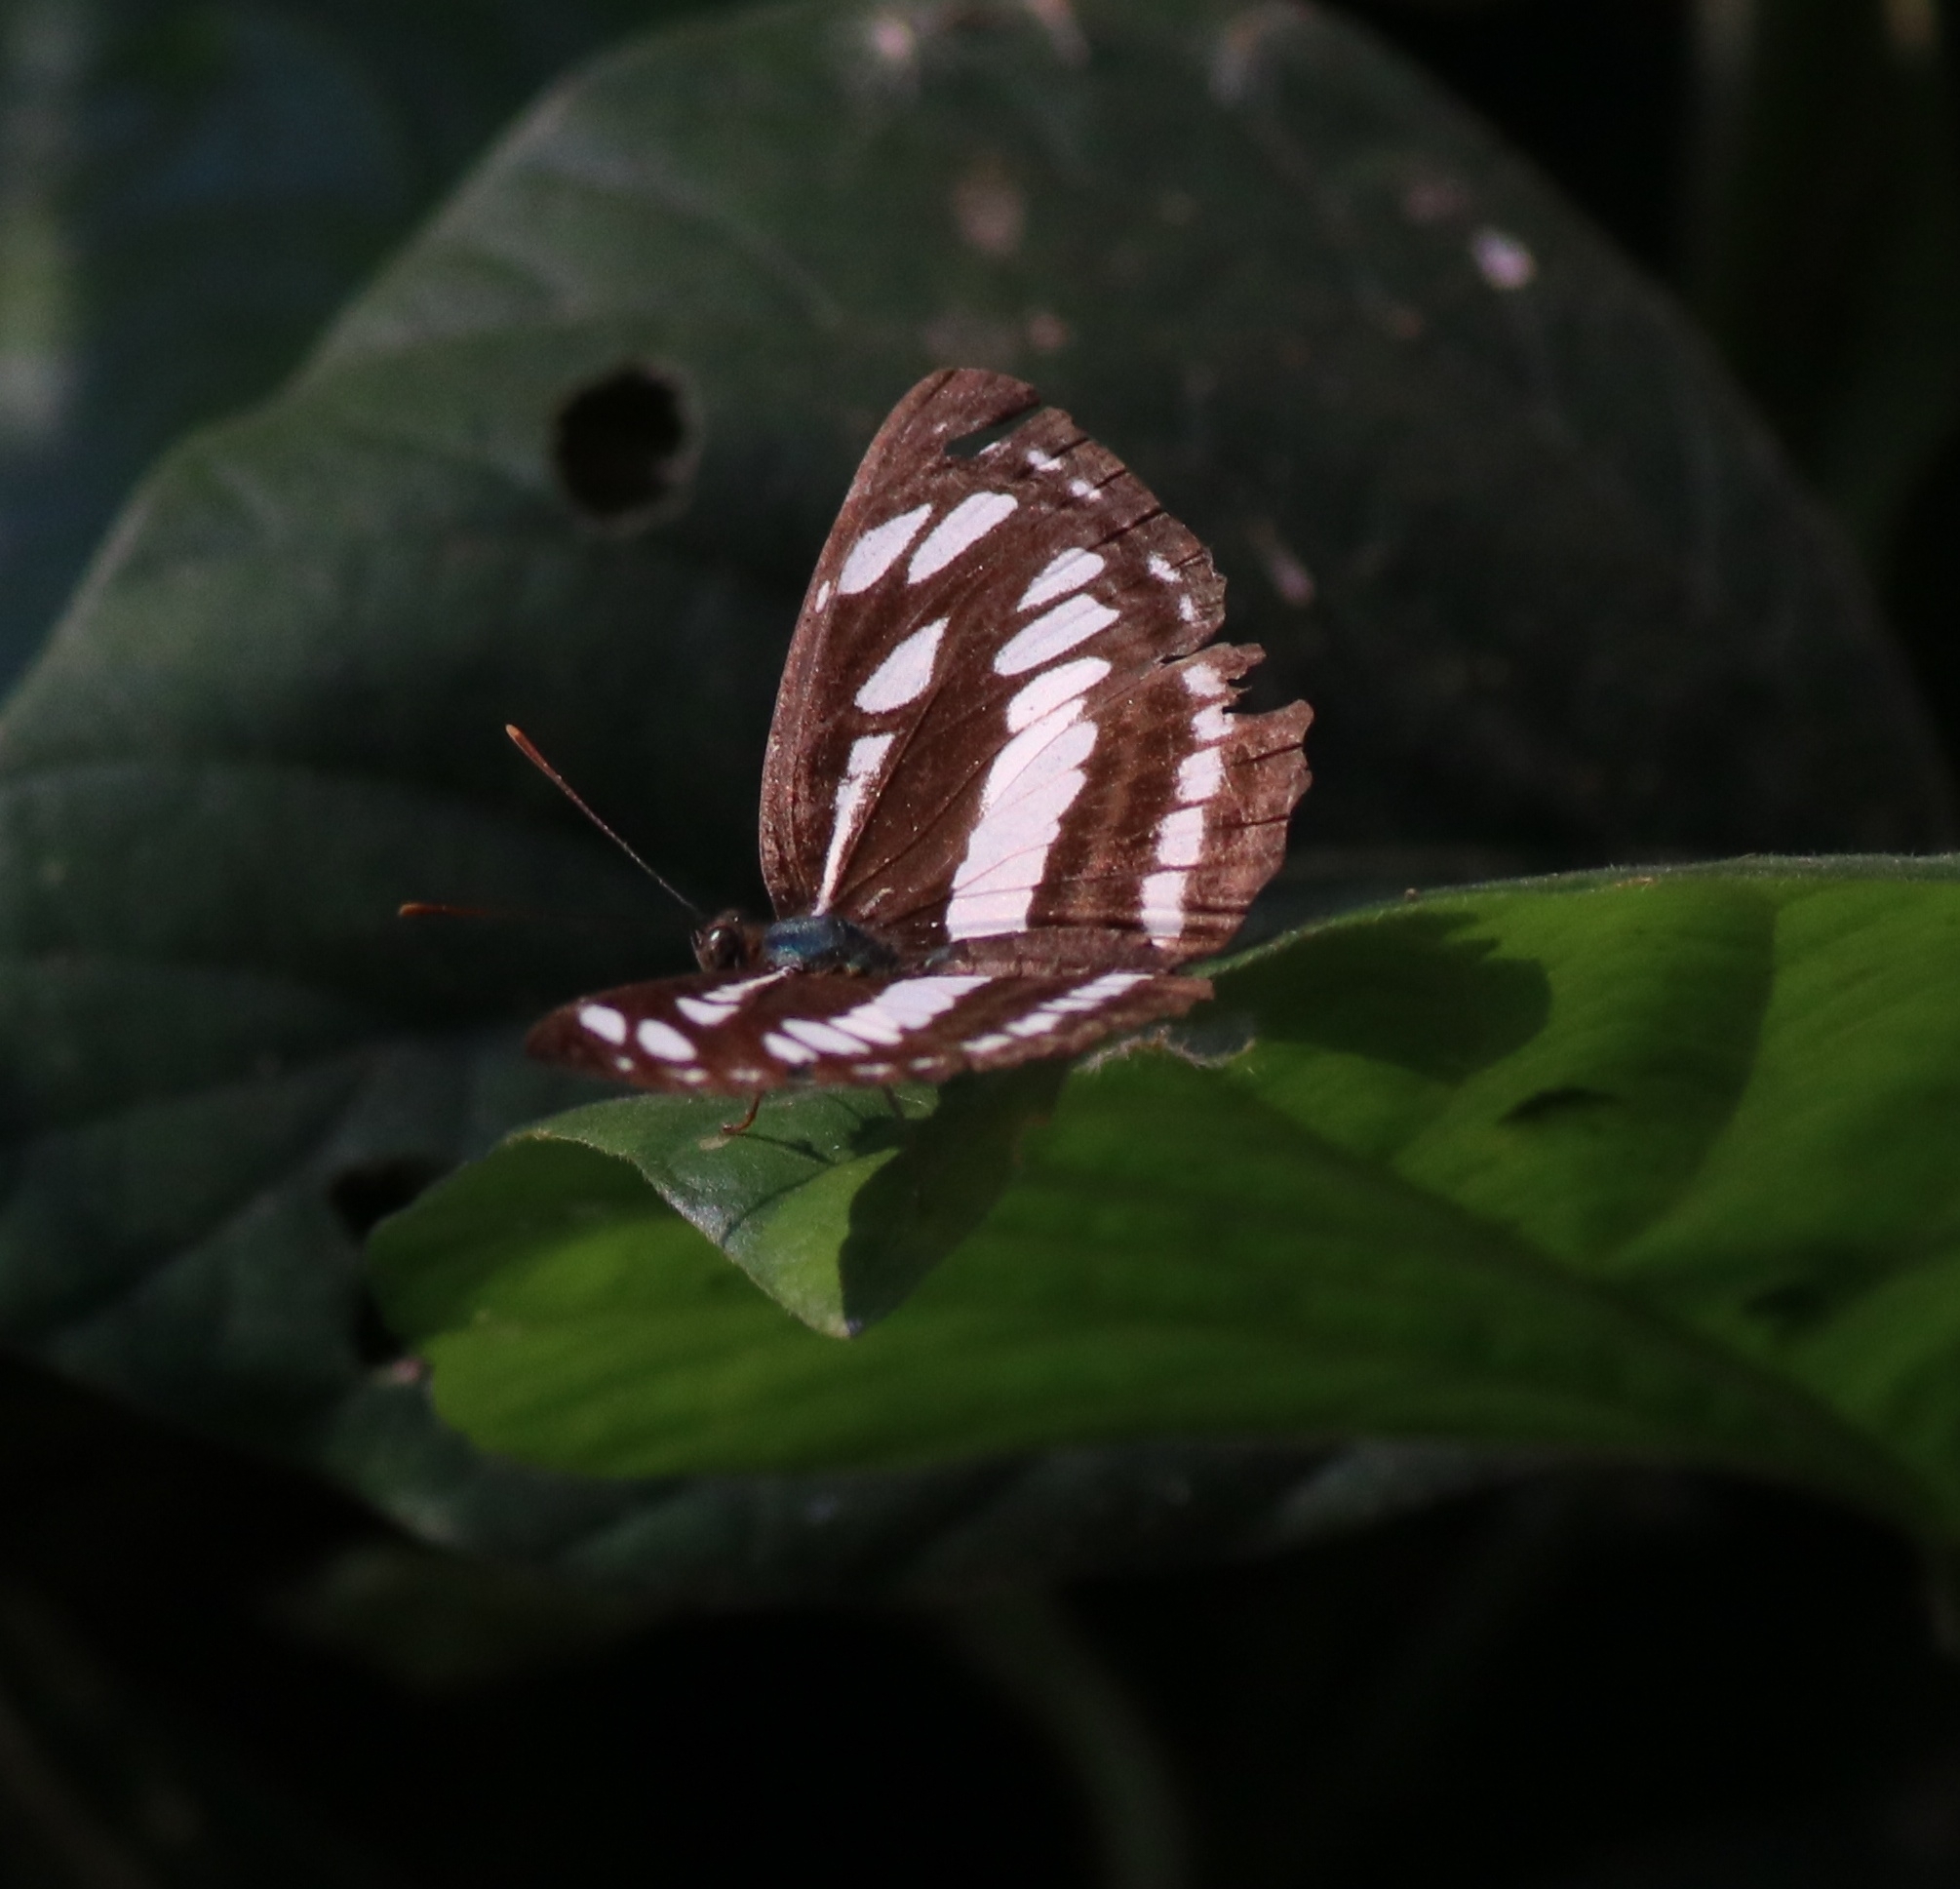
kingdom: Animalia
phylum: Arthropoda
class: Insecta
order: Lepidoptera
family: Nymphalidae
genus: Neptis
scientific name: Neptis hylas
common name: Common sailer
